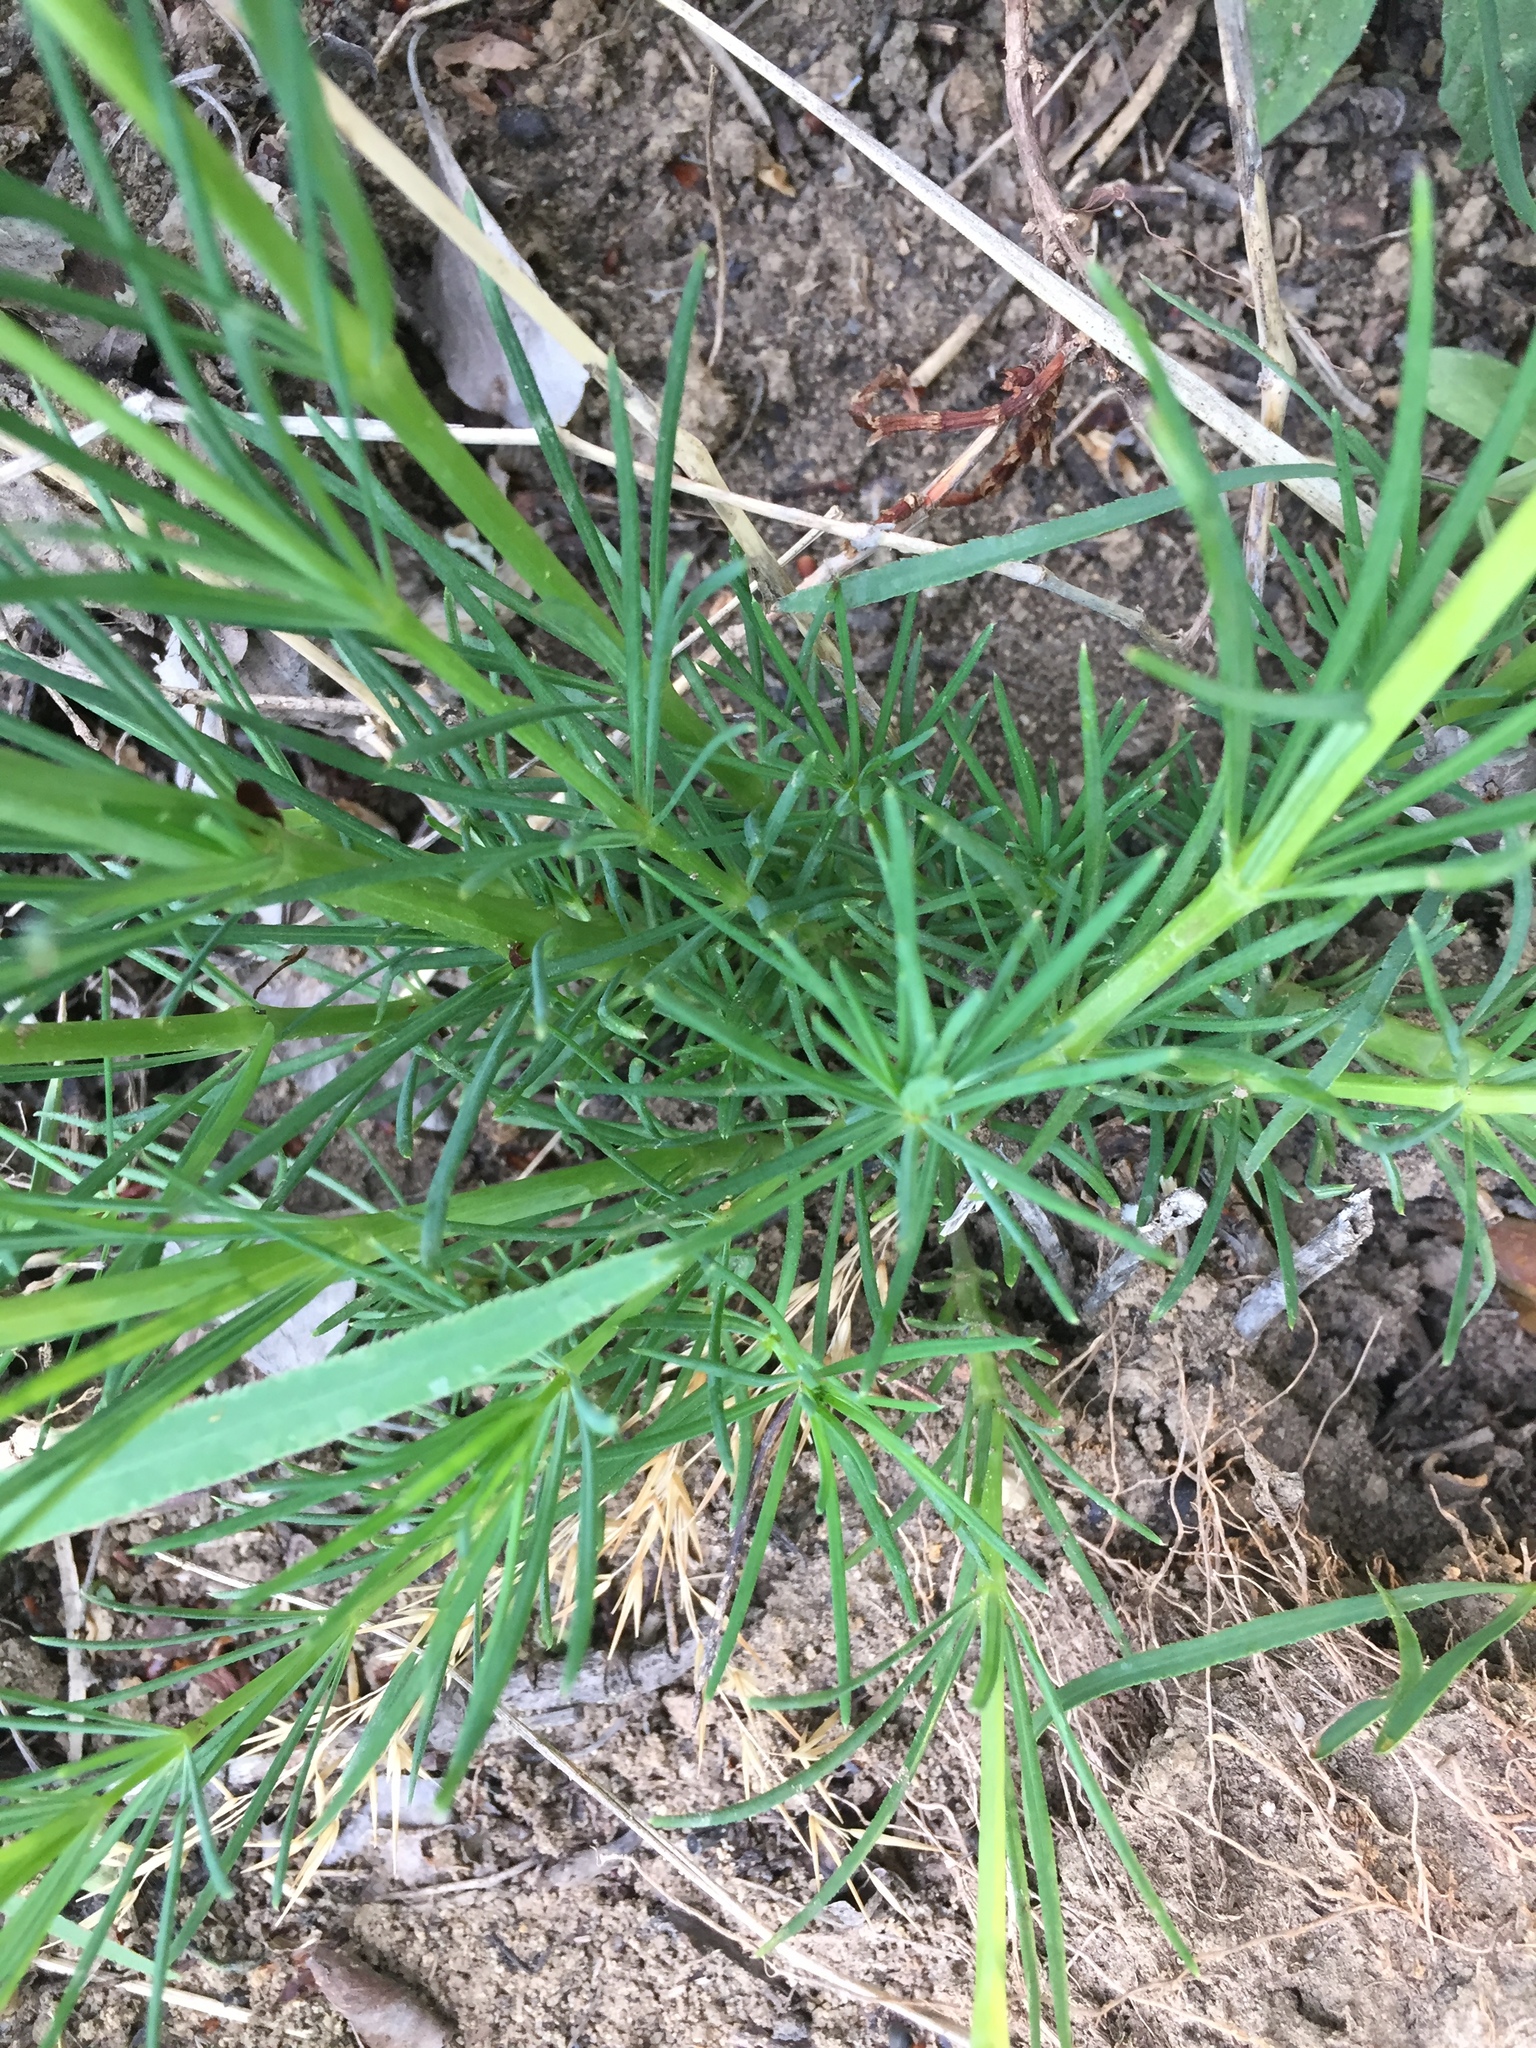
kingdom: Plantae
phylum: Tracheophyta
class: Magnoliopsida
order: Gentianales
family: Rubiaceae
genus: Galium
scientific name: Galium verum
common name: Lady's bedstraw
